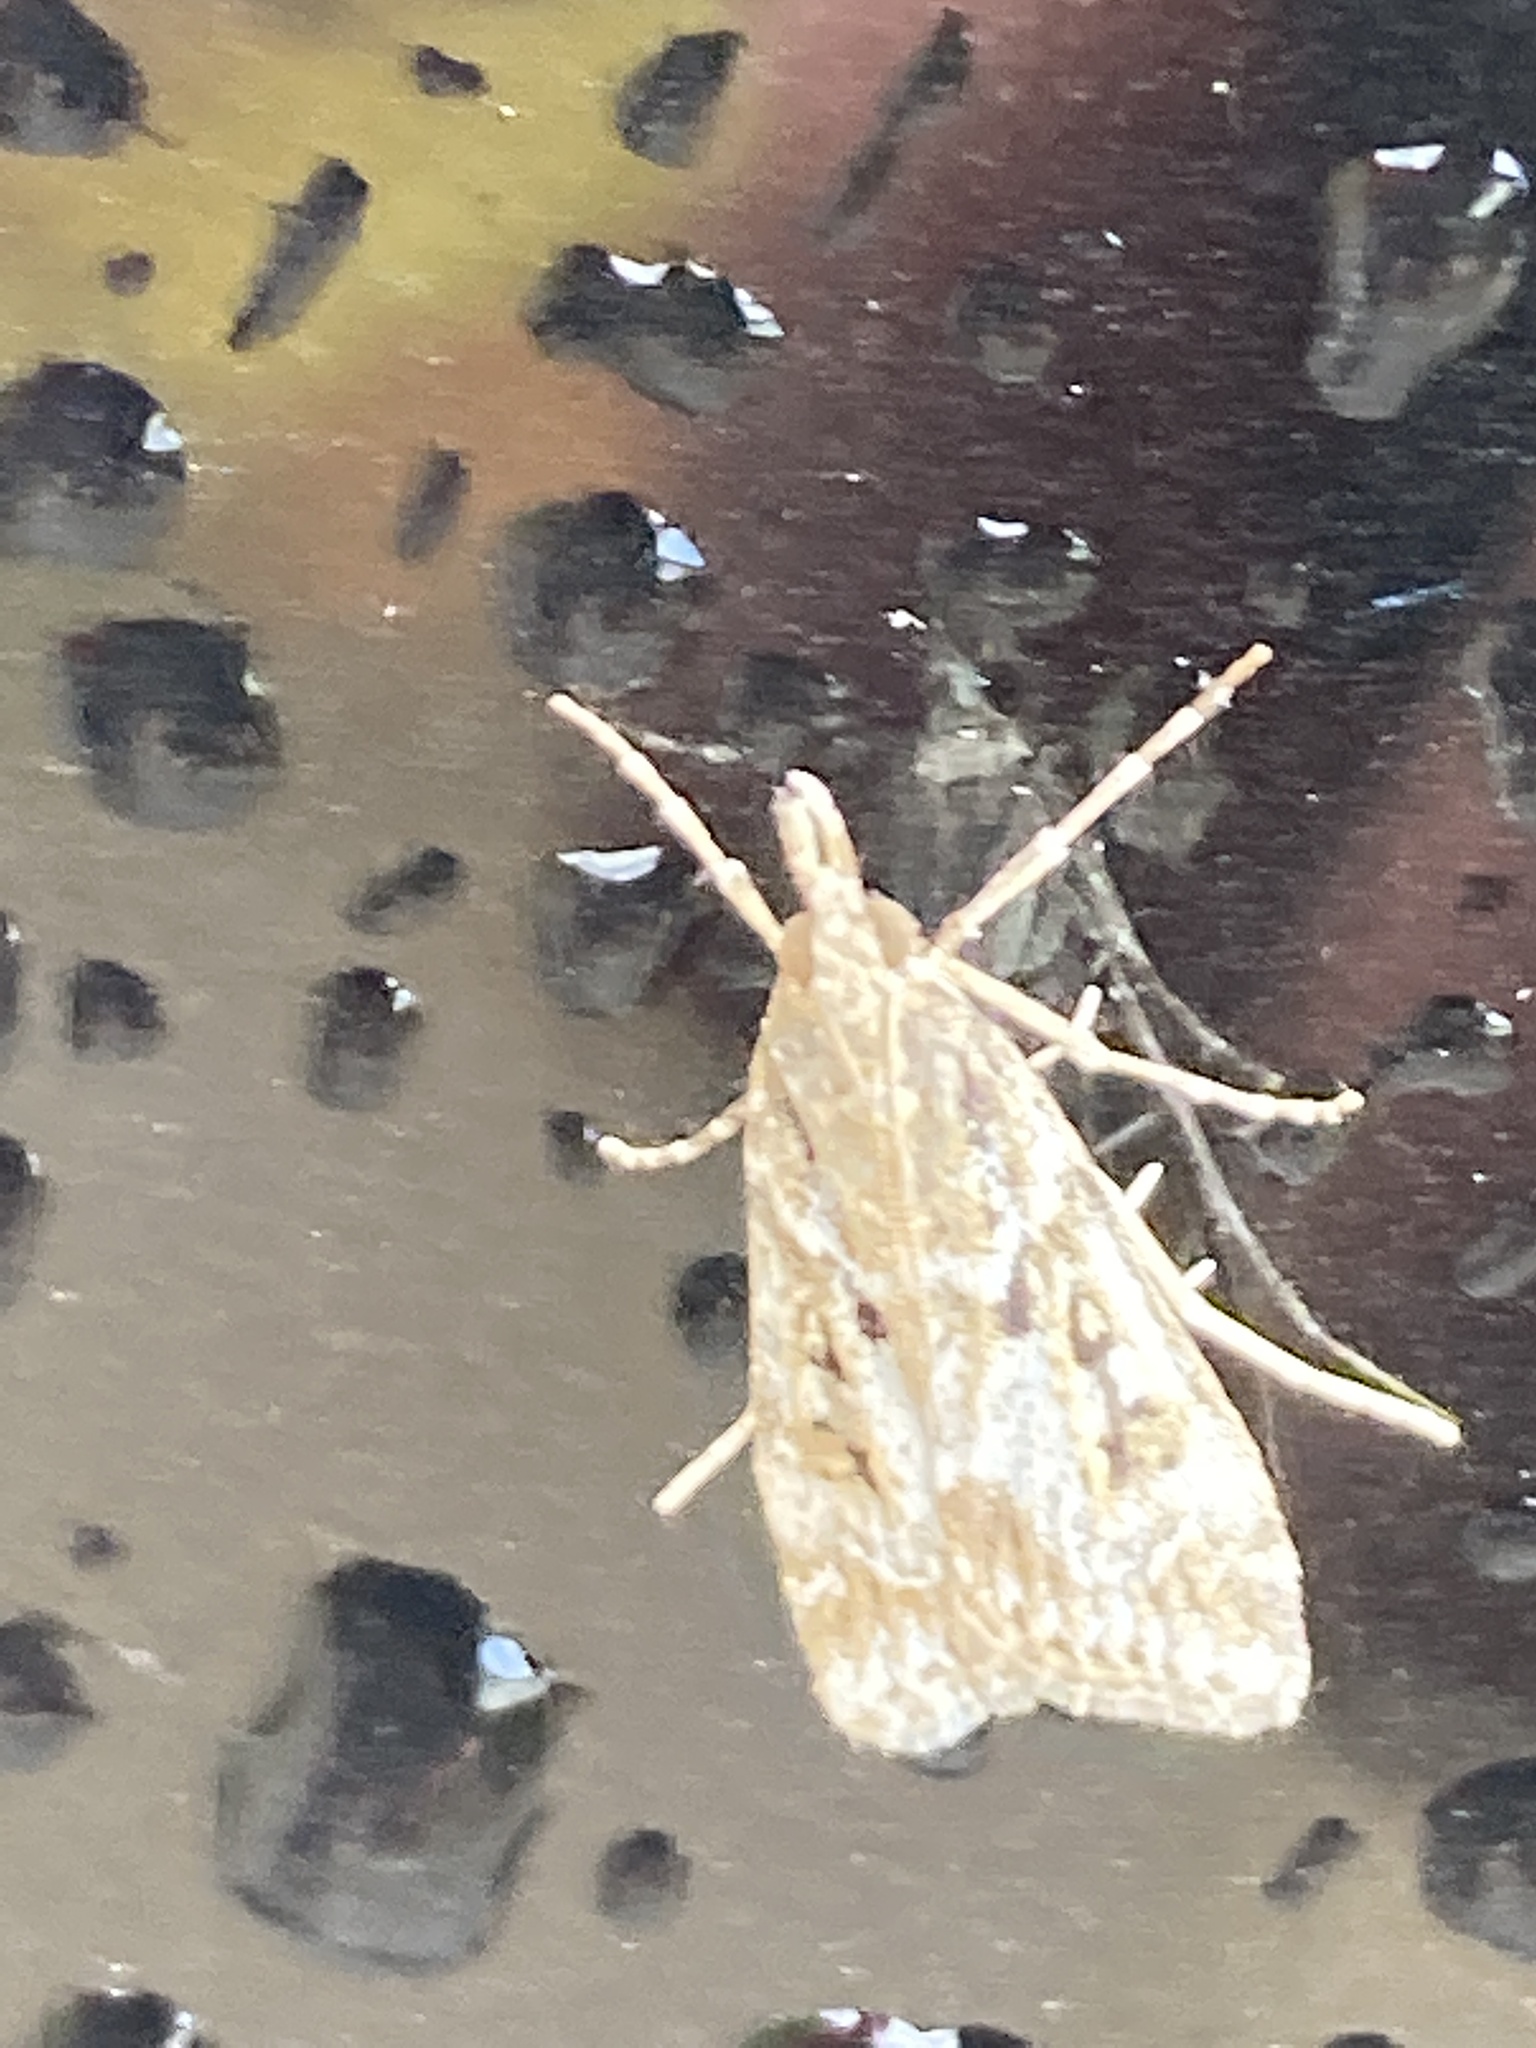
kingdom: Animalia
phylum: Arthropoda
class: Insecta
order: Lepidoptera
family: Crambidae
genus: Eudonia
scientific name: Eudonia angustea
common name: Narrow-winged grey
